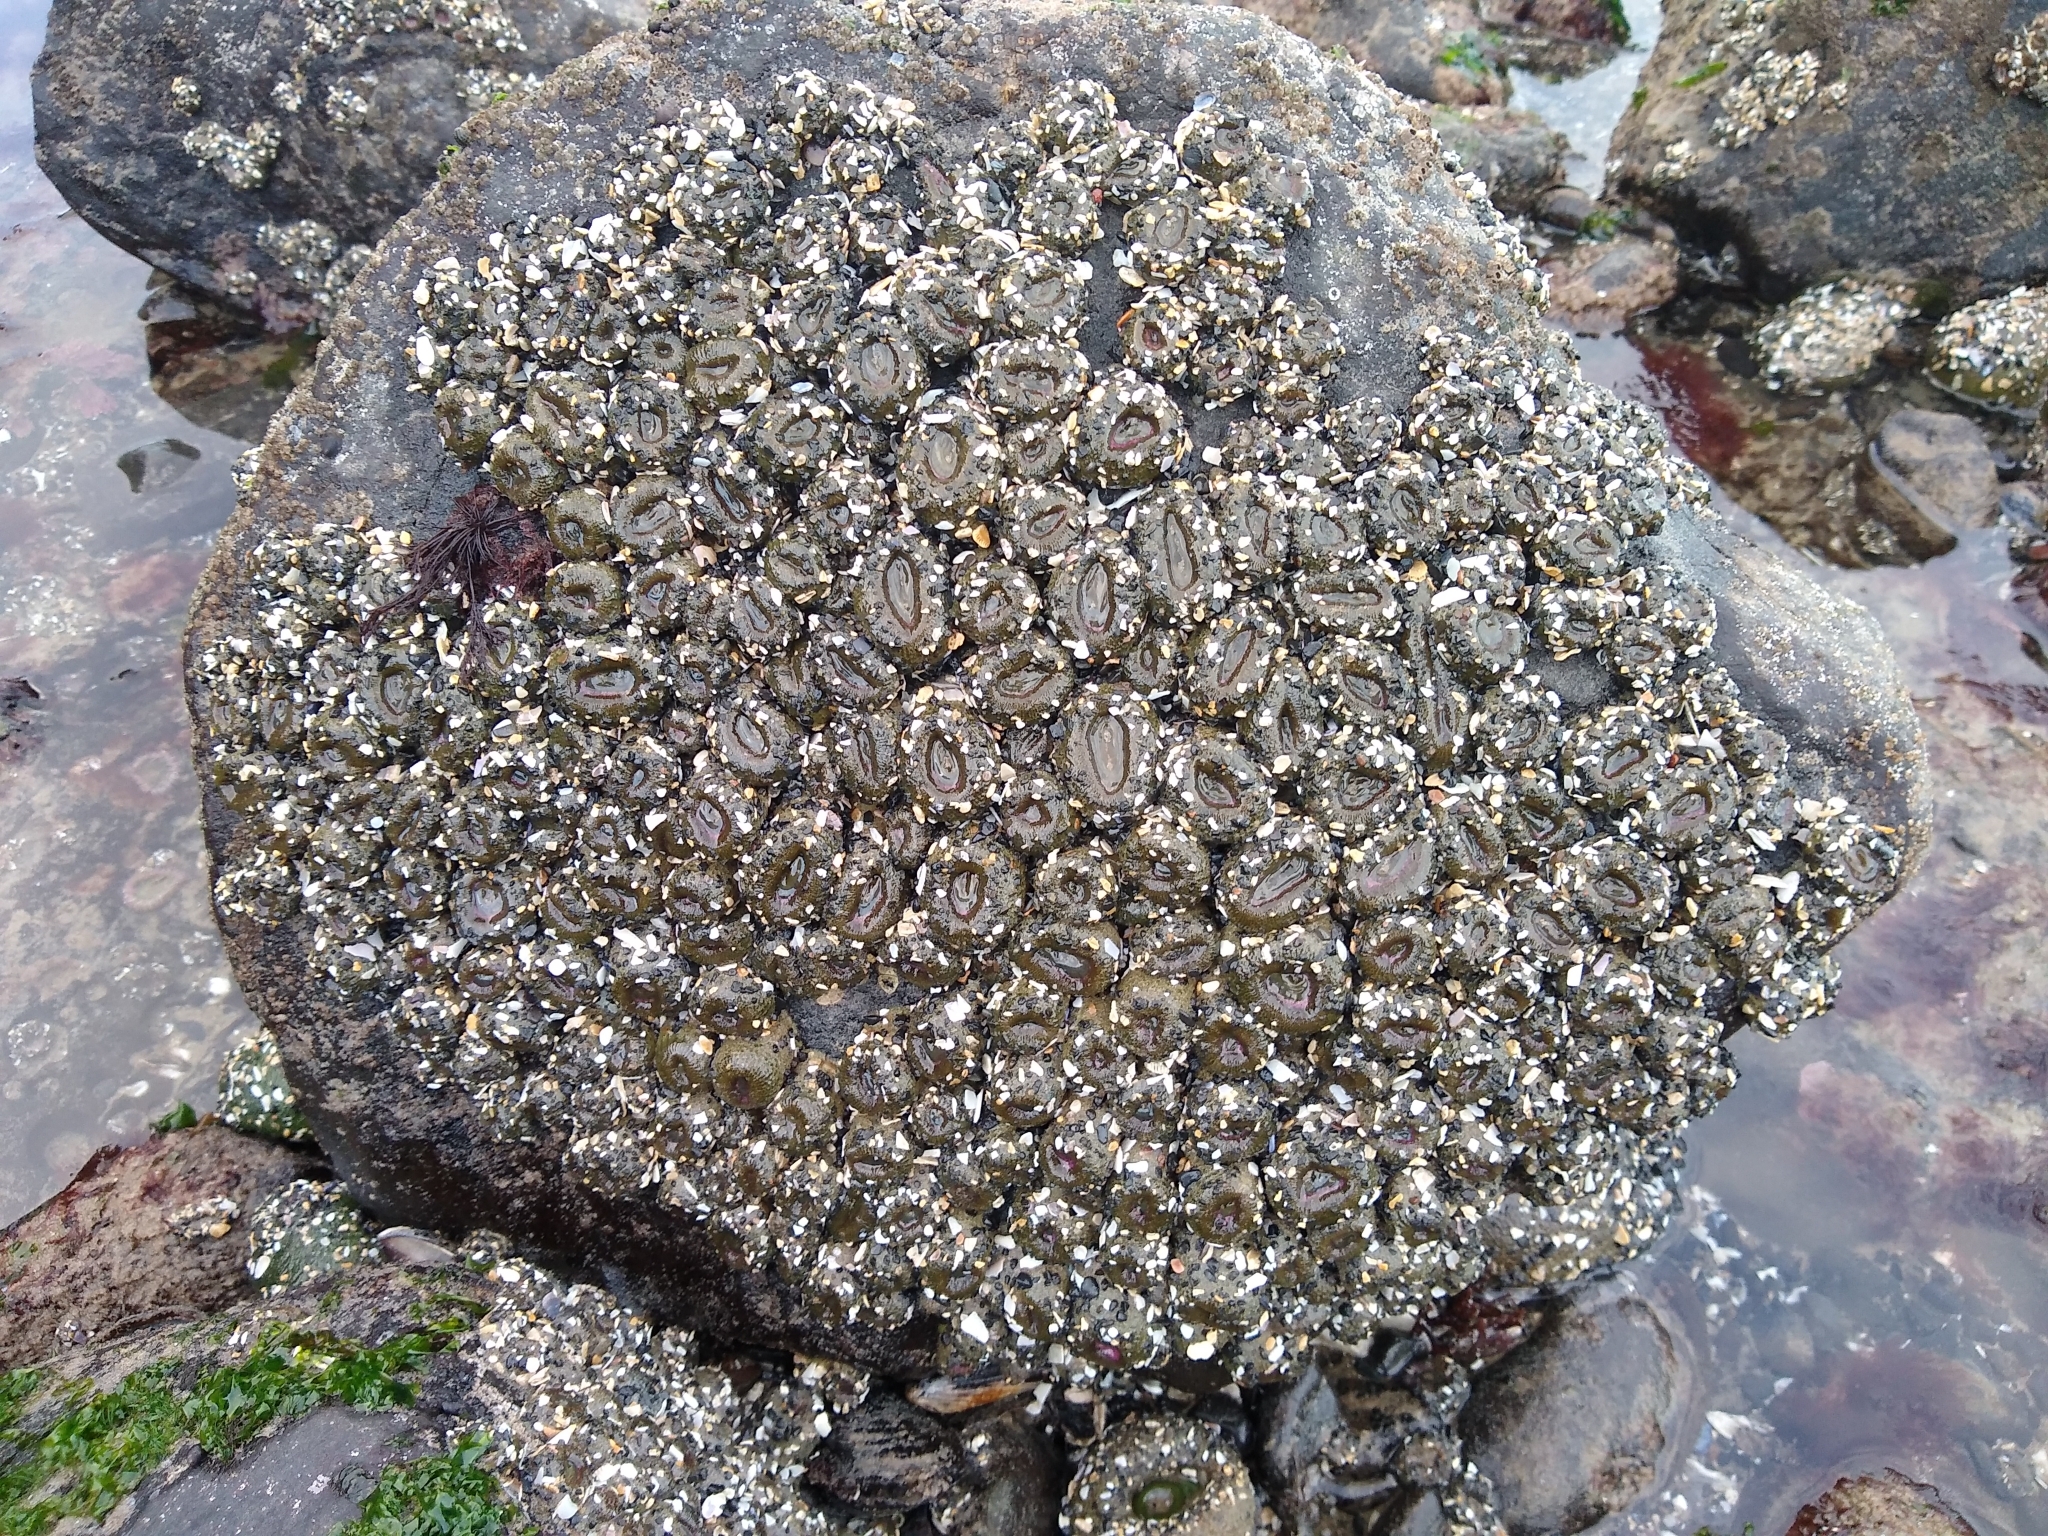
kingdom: Animalia
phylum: Cnidaria
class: Anthozoa
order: Actiniaria
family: Actiniidae
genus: Anthopleura
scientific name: Anthopleura elegantissima
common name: Clonal anemone
